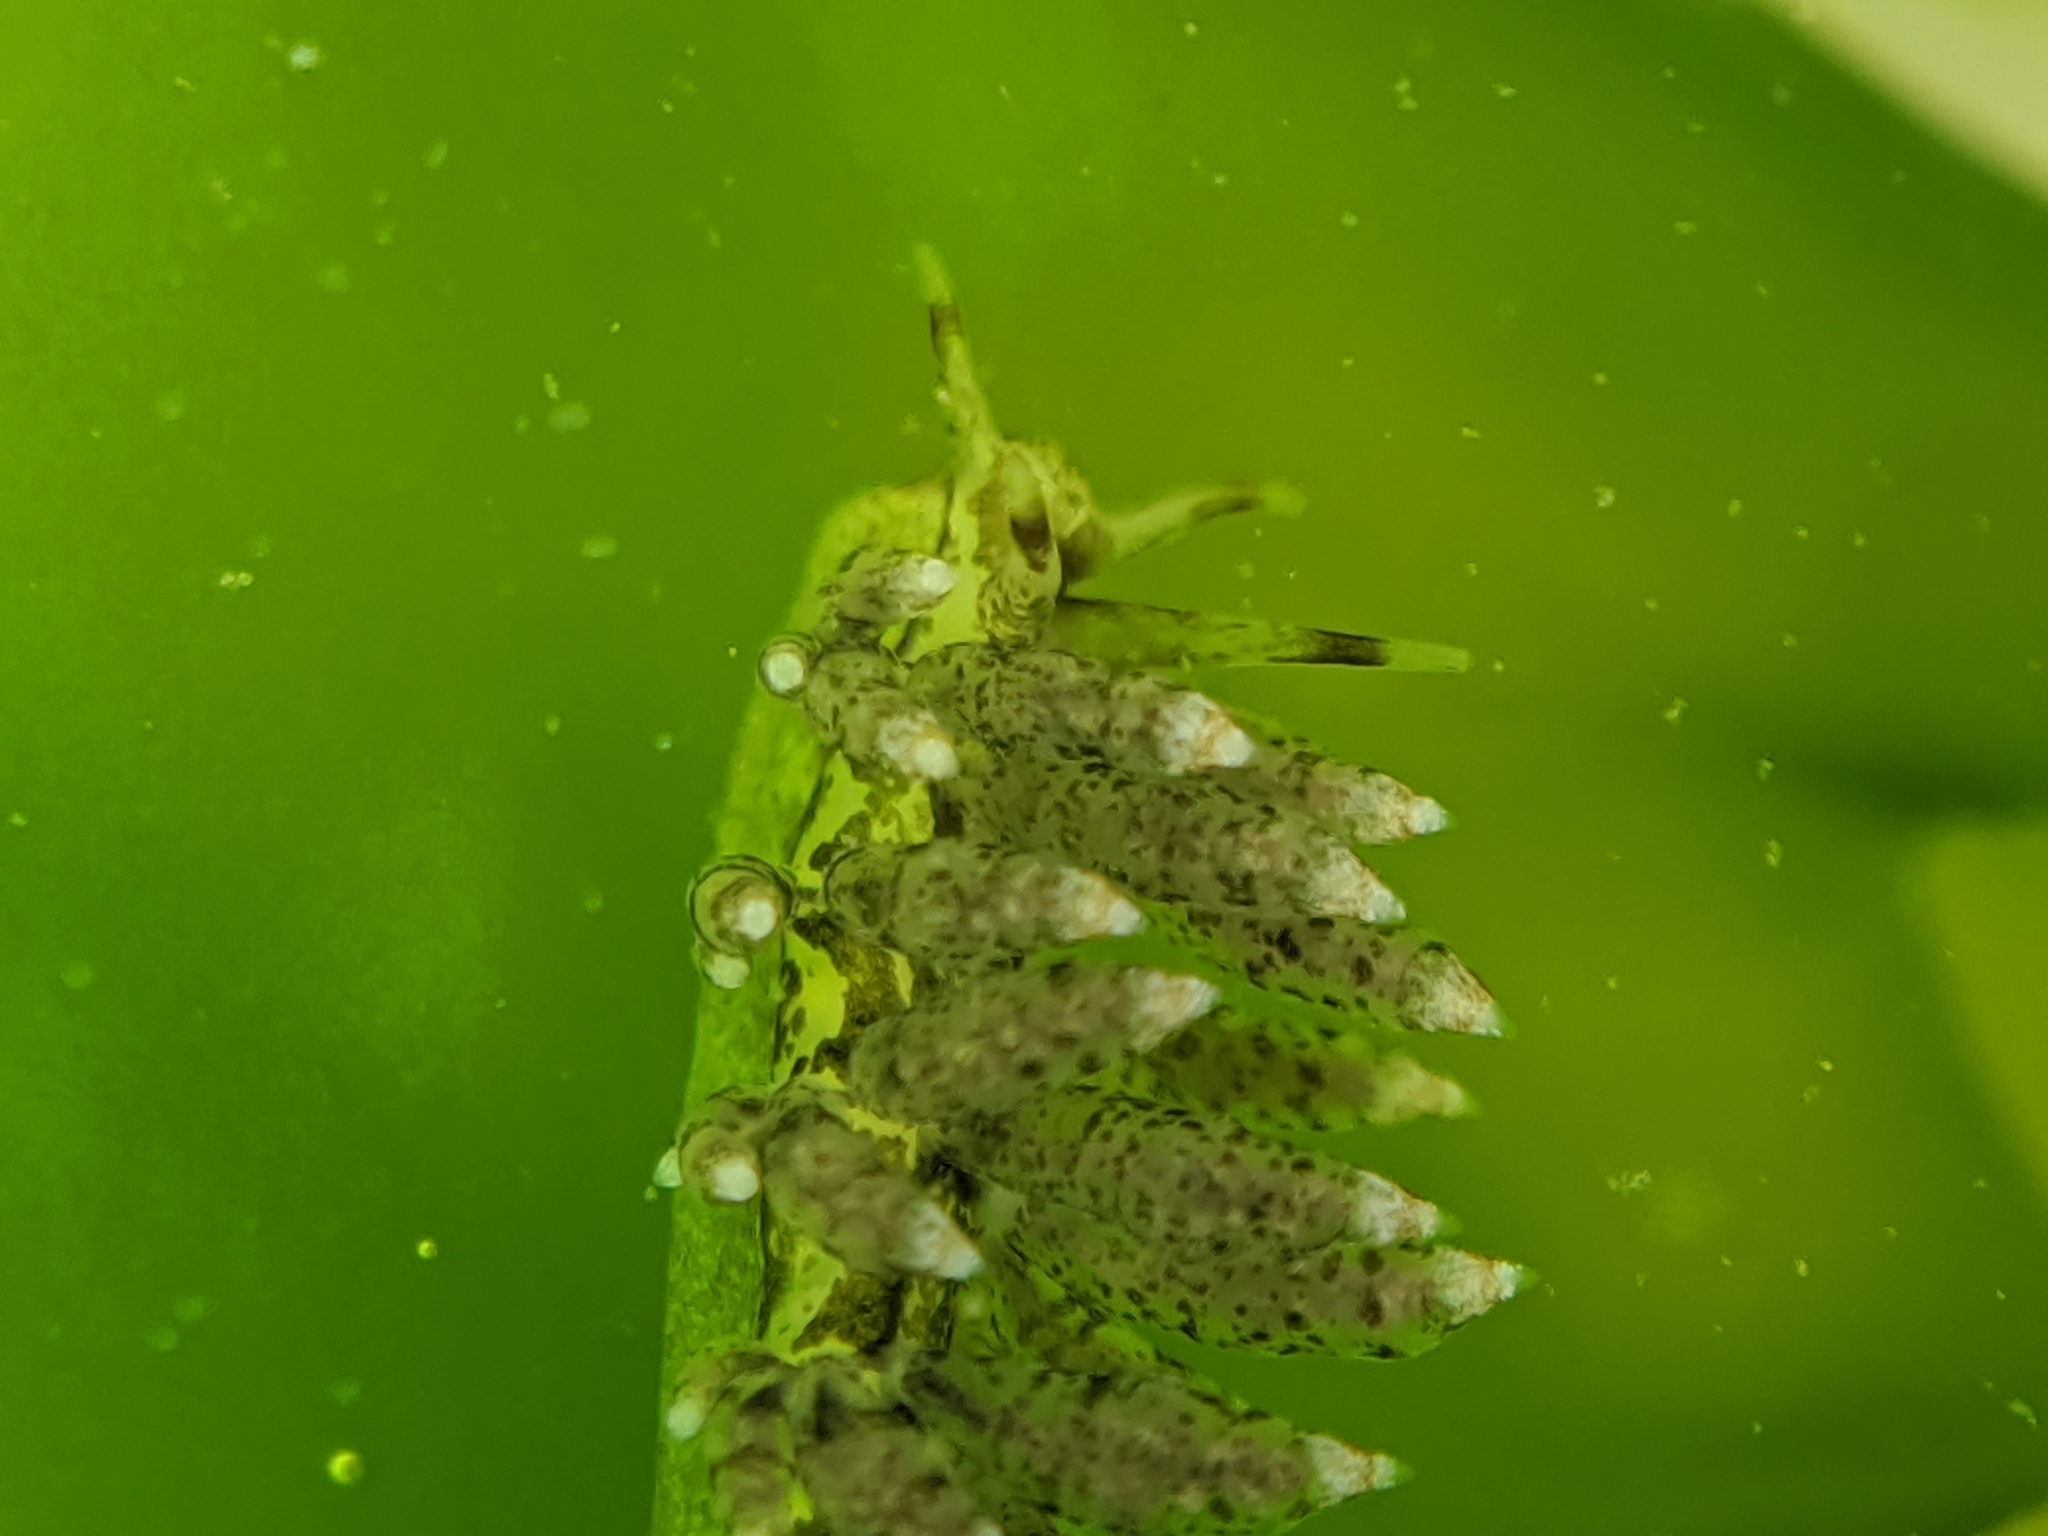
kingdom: Animalia
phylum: Mollusca
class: Gastropoda
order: Nudibranchia
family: Eubranchidae
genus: Eubranchus
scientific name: Eubranchus rustyus
